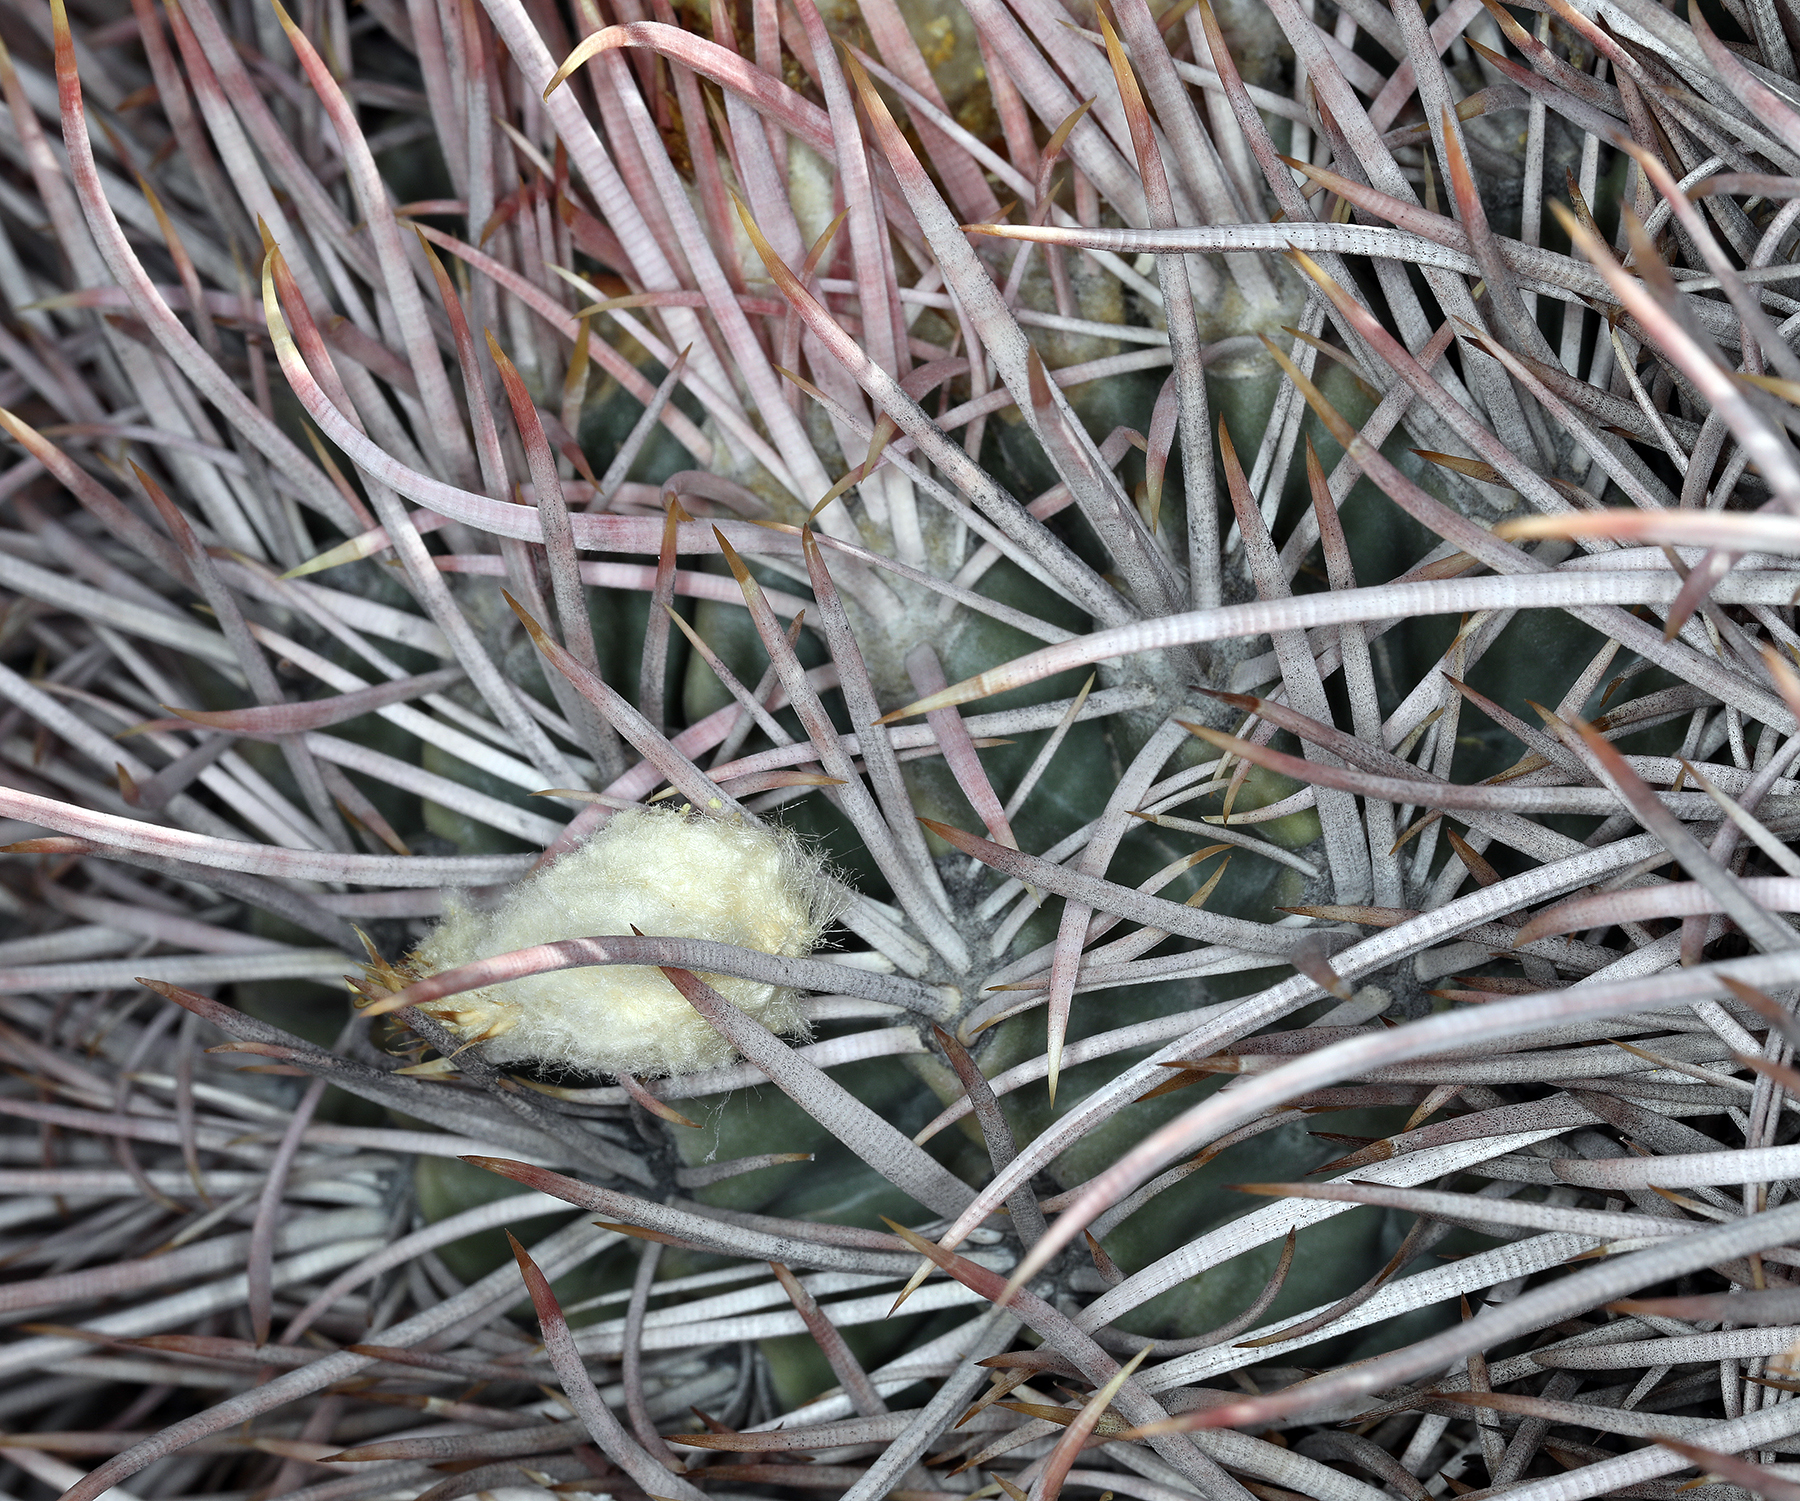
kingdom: Plantae
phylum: Tracheophyta
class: Magnoliopsida
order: Caryophyllales
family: Cactaceae
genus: Echinocactus
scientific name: Echinocactus polycephalus
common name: Cottontop cactus
